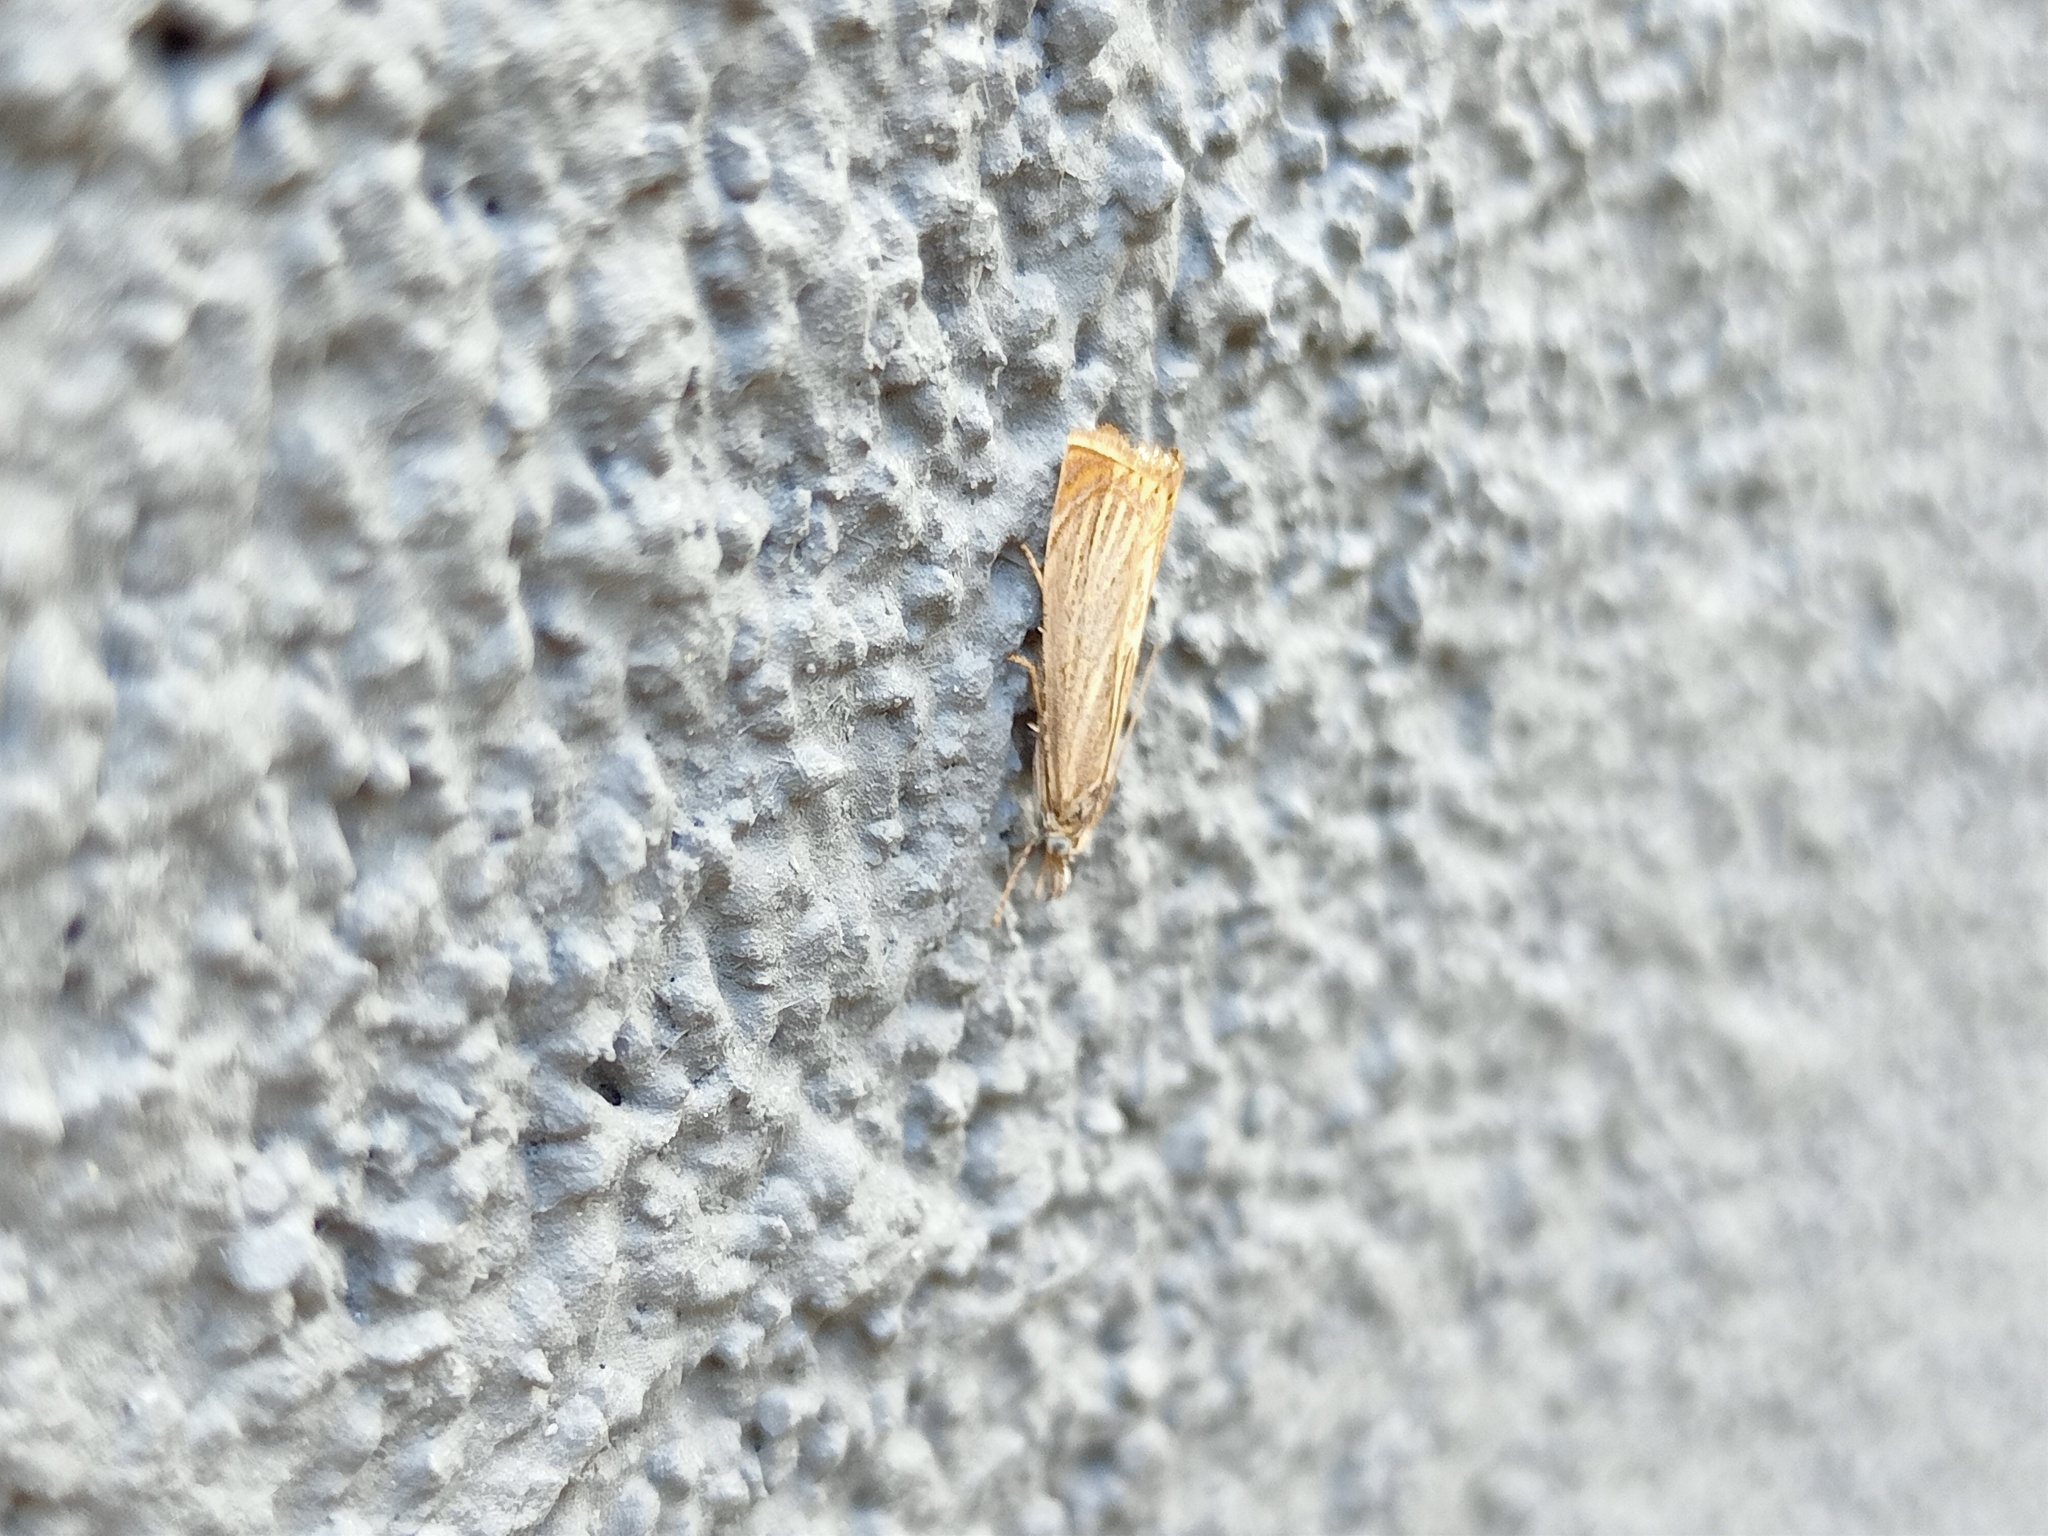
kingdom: Animalia
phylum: Arthropoda
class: Insecta
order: Lepidoptera
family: Crambidae
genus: Chrysoteuchia
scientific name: Chrysoteuchia culmella
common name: Garden grass-veneer
